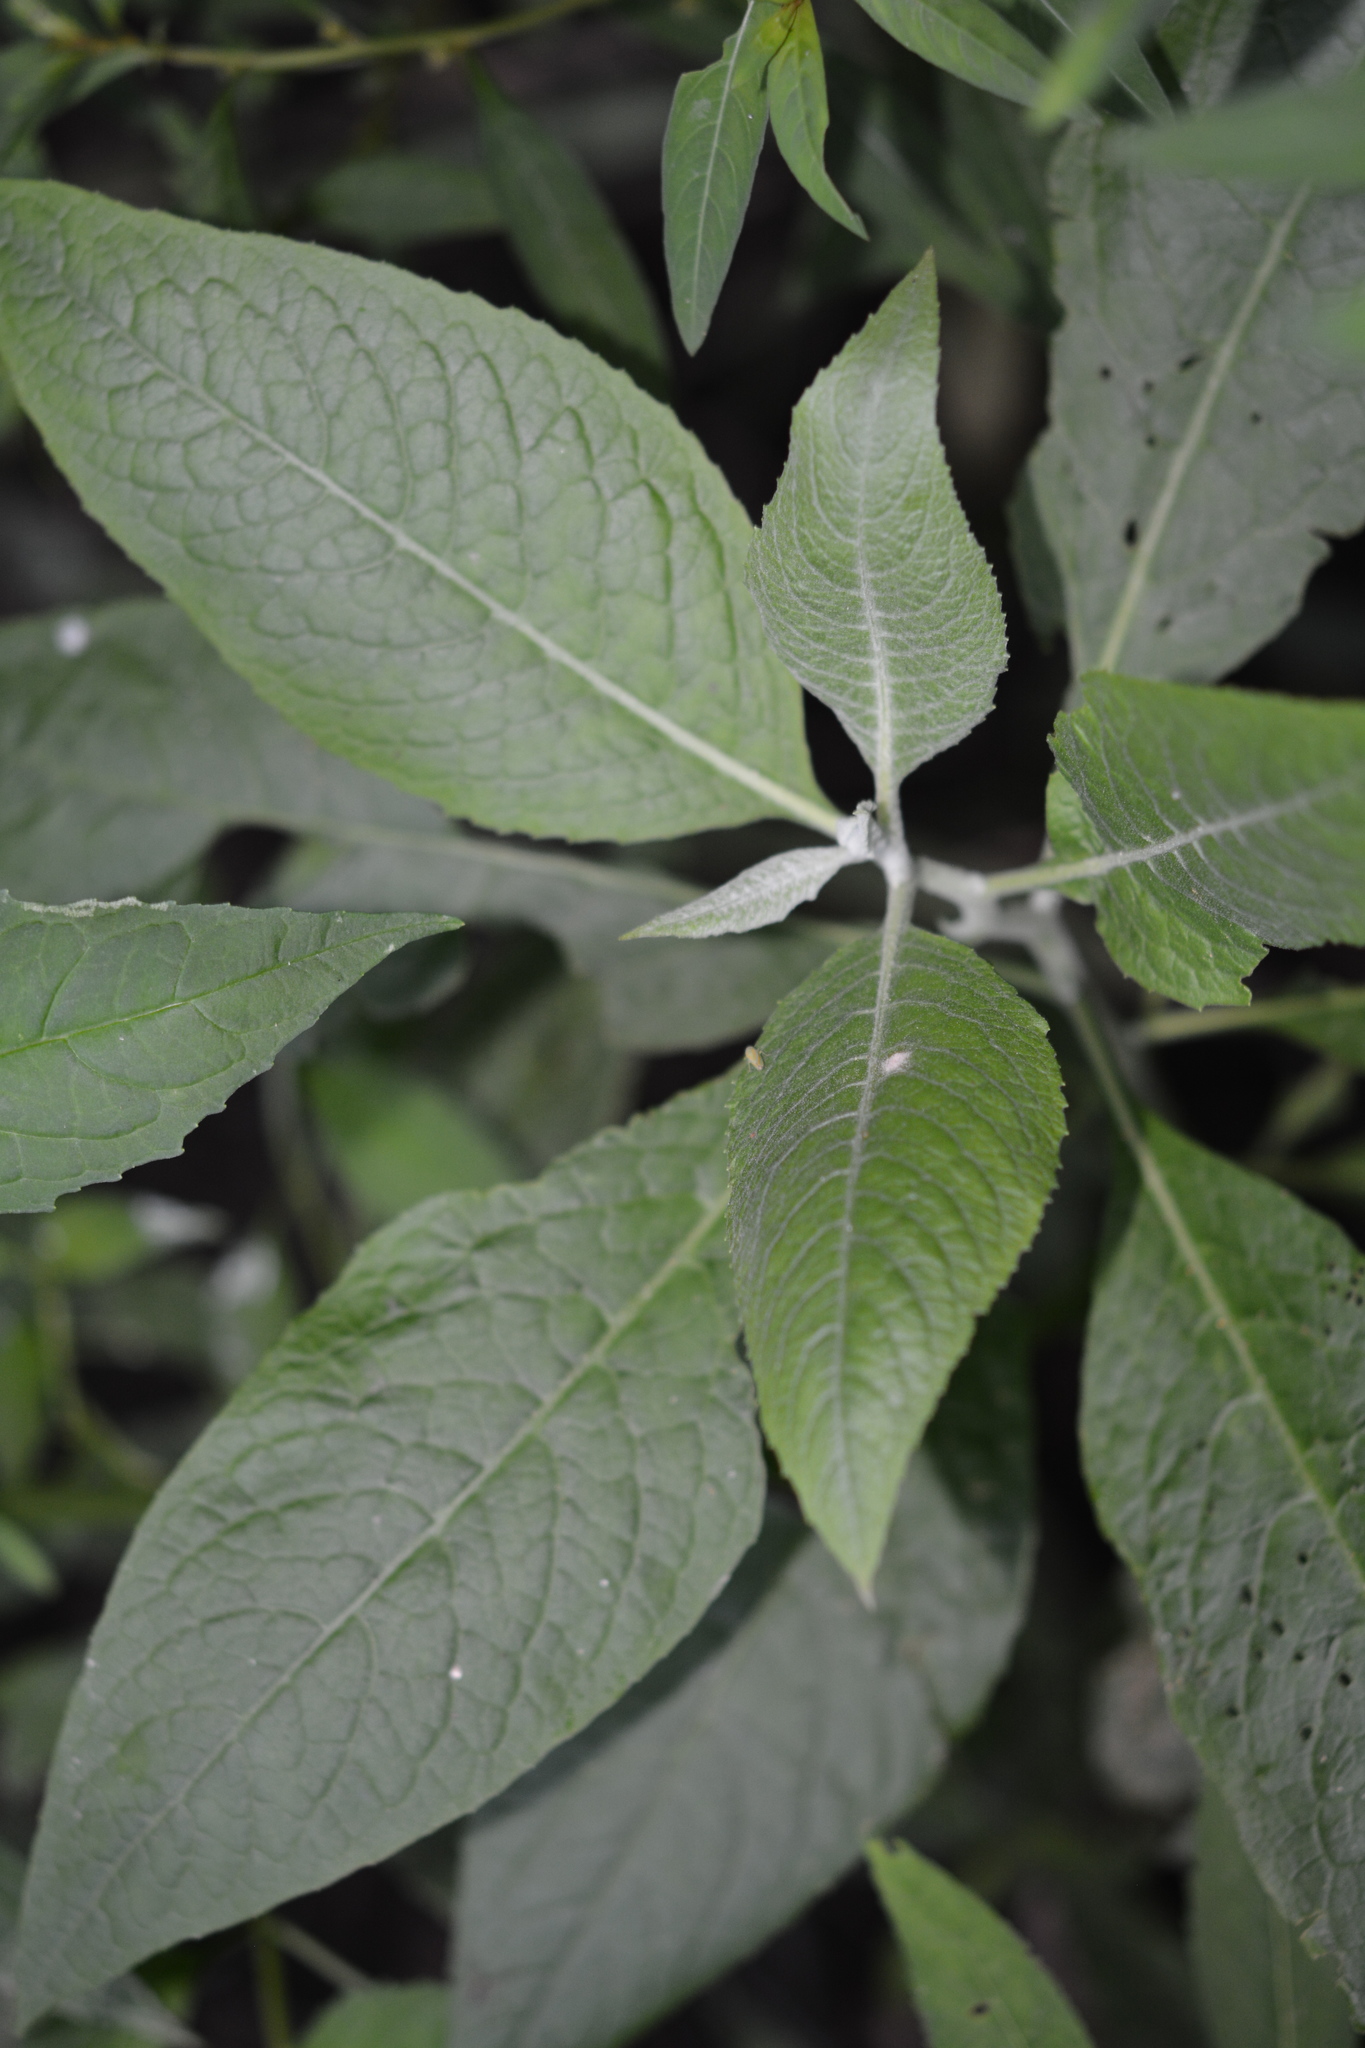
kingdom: Plantae
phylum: Tracheophyta
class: Magnoliopsida
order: Asterales
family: Asteraceae
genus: Pluchea
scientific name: Pluchea camphorata
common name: Camphor pluchea
